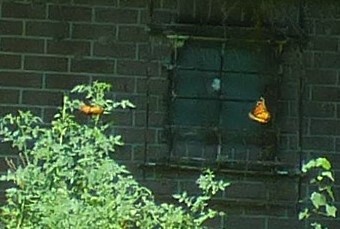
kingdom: Animalia
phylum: Arthropoda
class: Insecta
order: Lepidoptera
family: Nymphalidae
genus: Danaus
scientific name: Danaus plexippus
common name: Monarch
